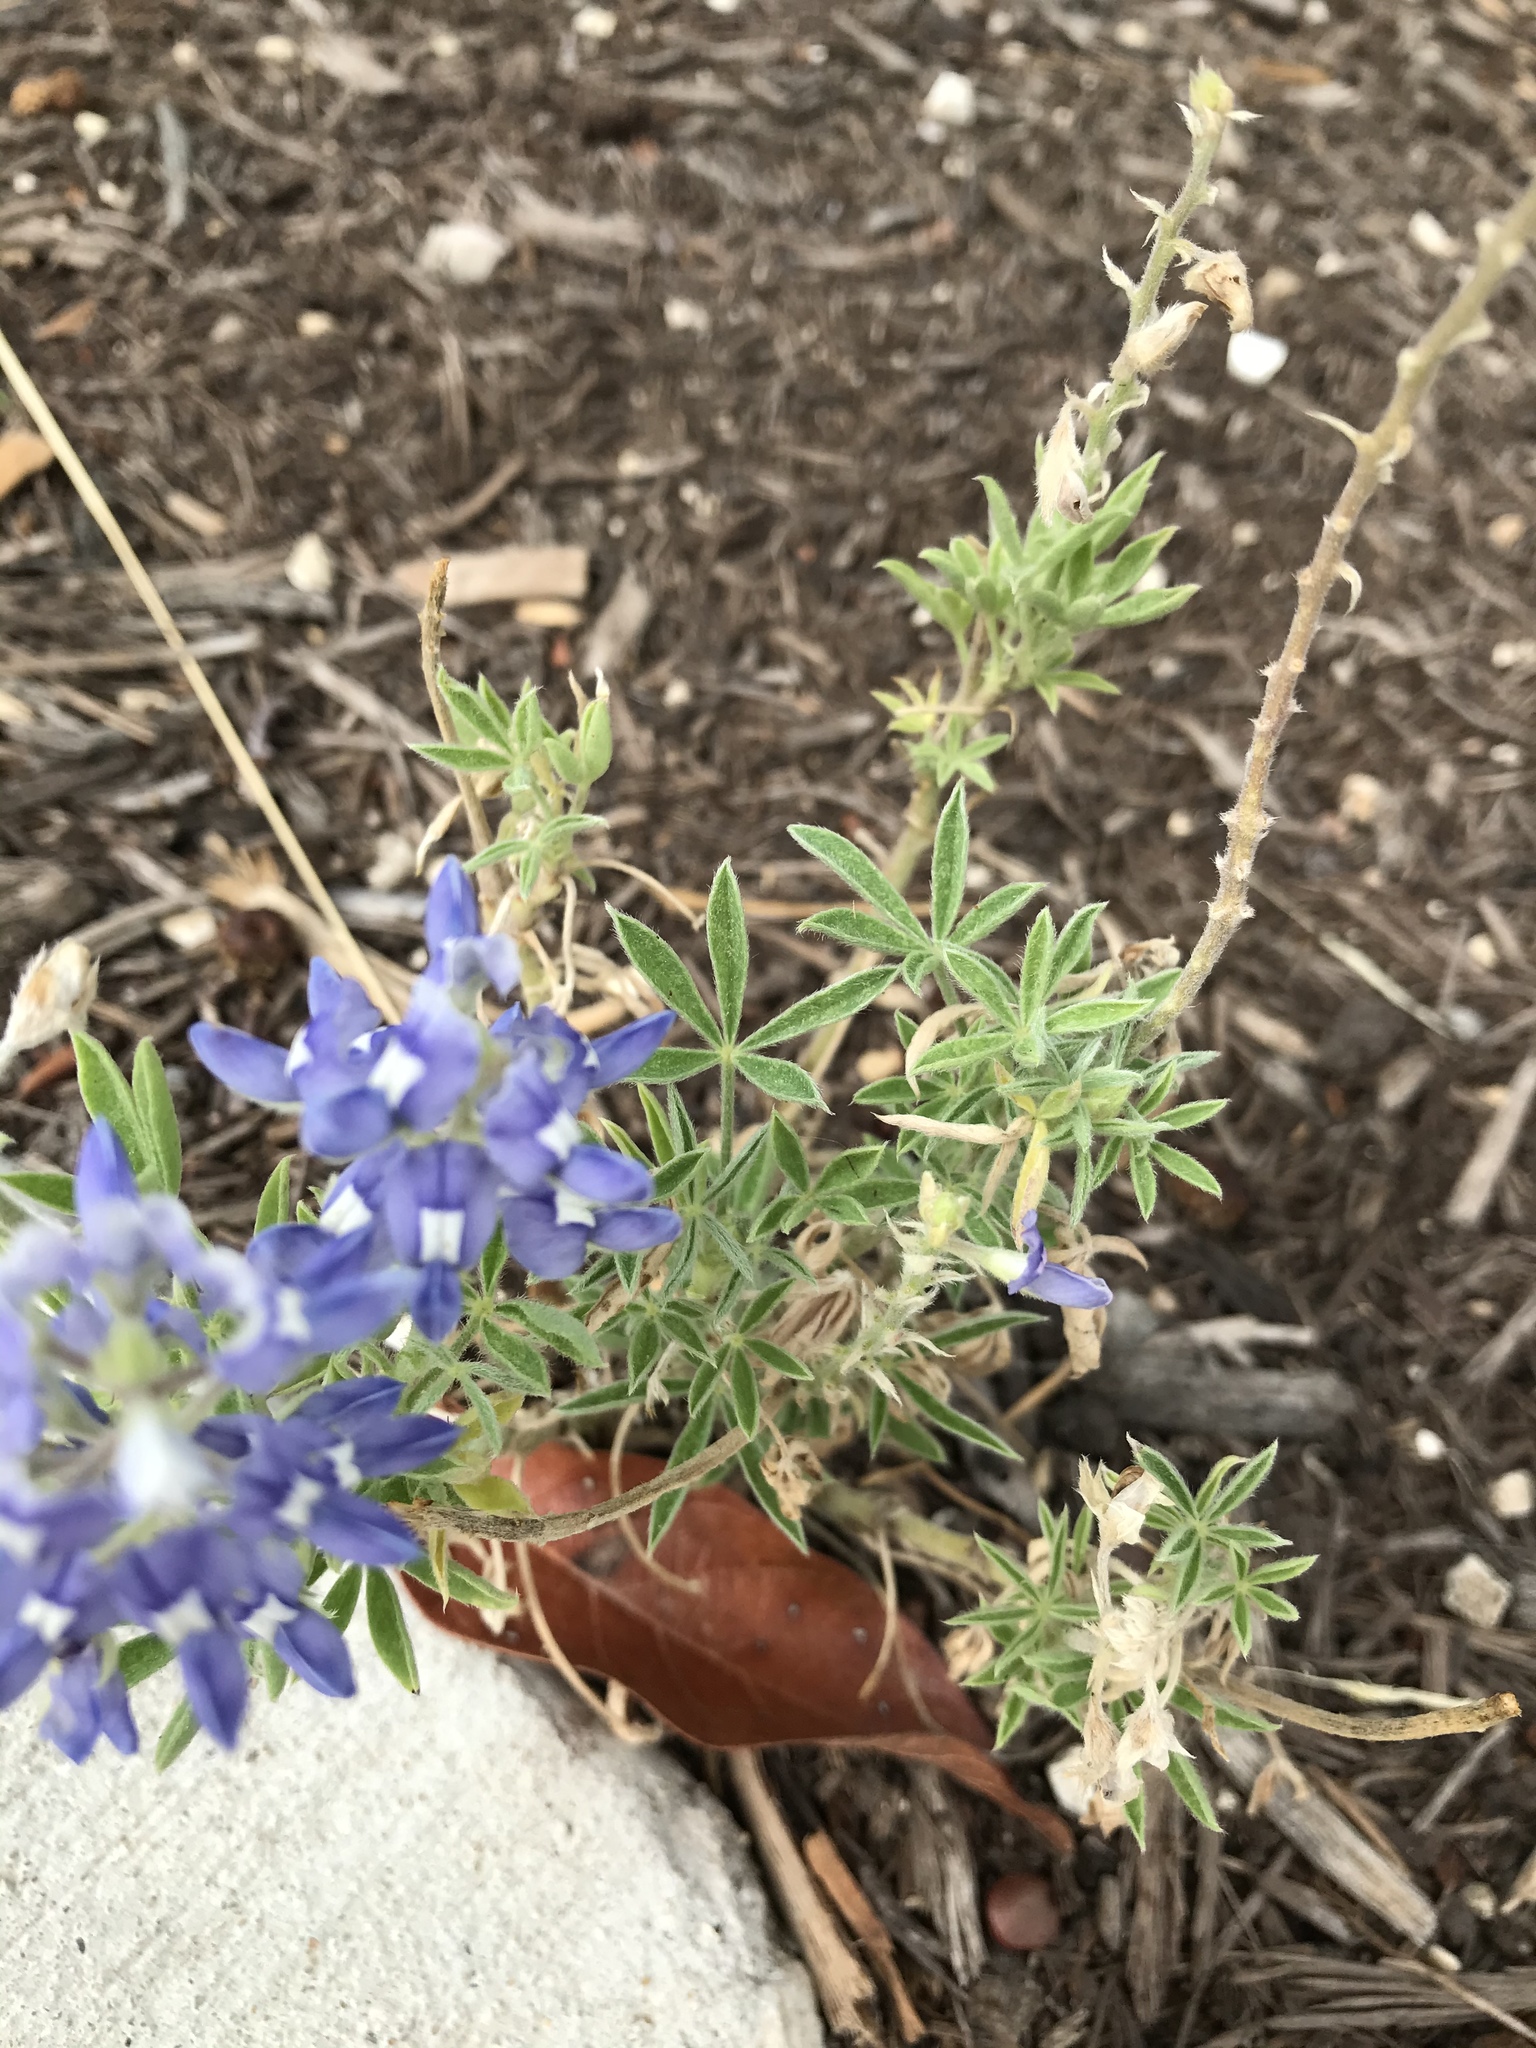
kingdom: Plantae
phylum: Tracheophyta
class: Magnoliopsida
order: Fabales
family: Fabaceae
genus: Lupinus
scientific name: Lupinus texensis
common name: Texas bluebonnet
